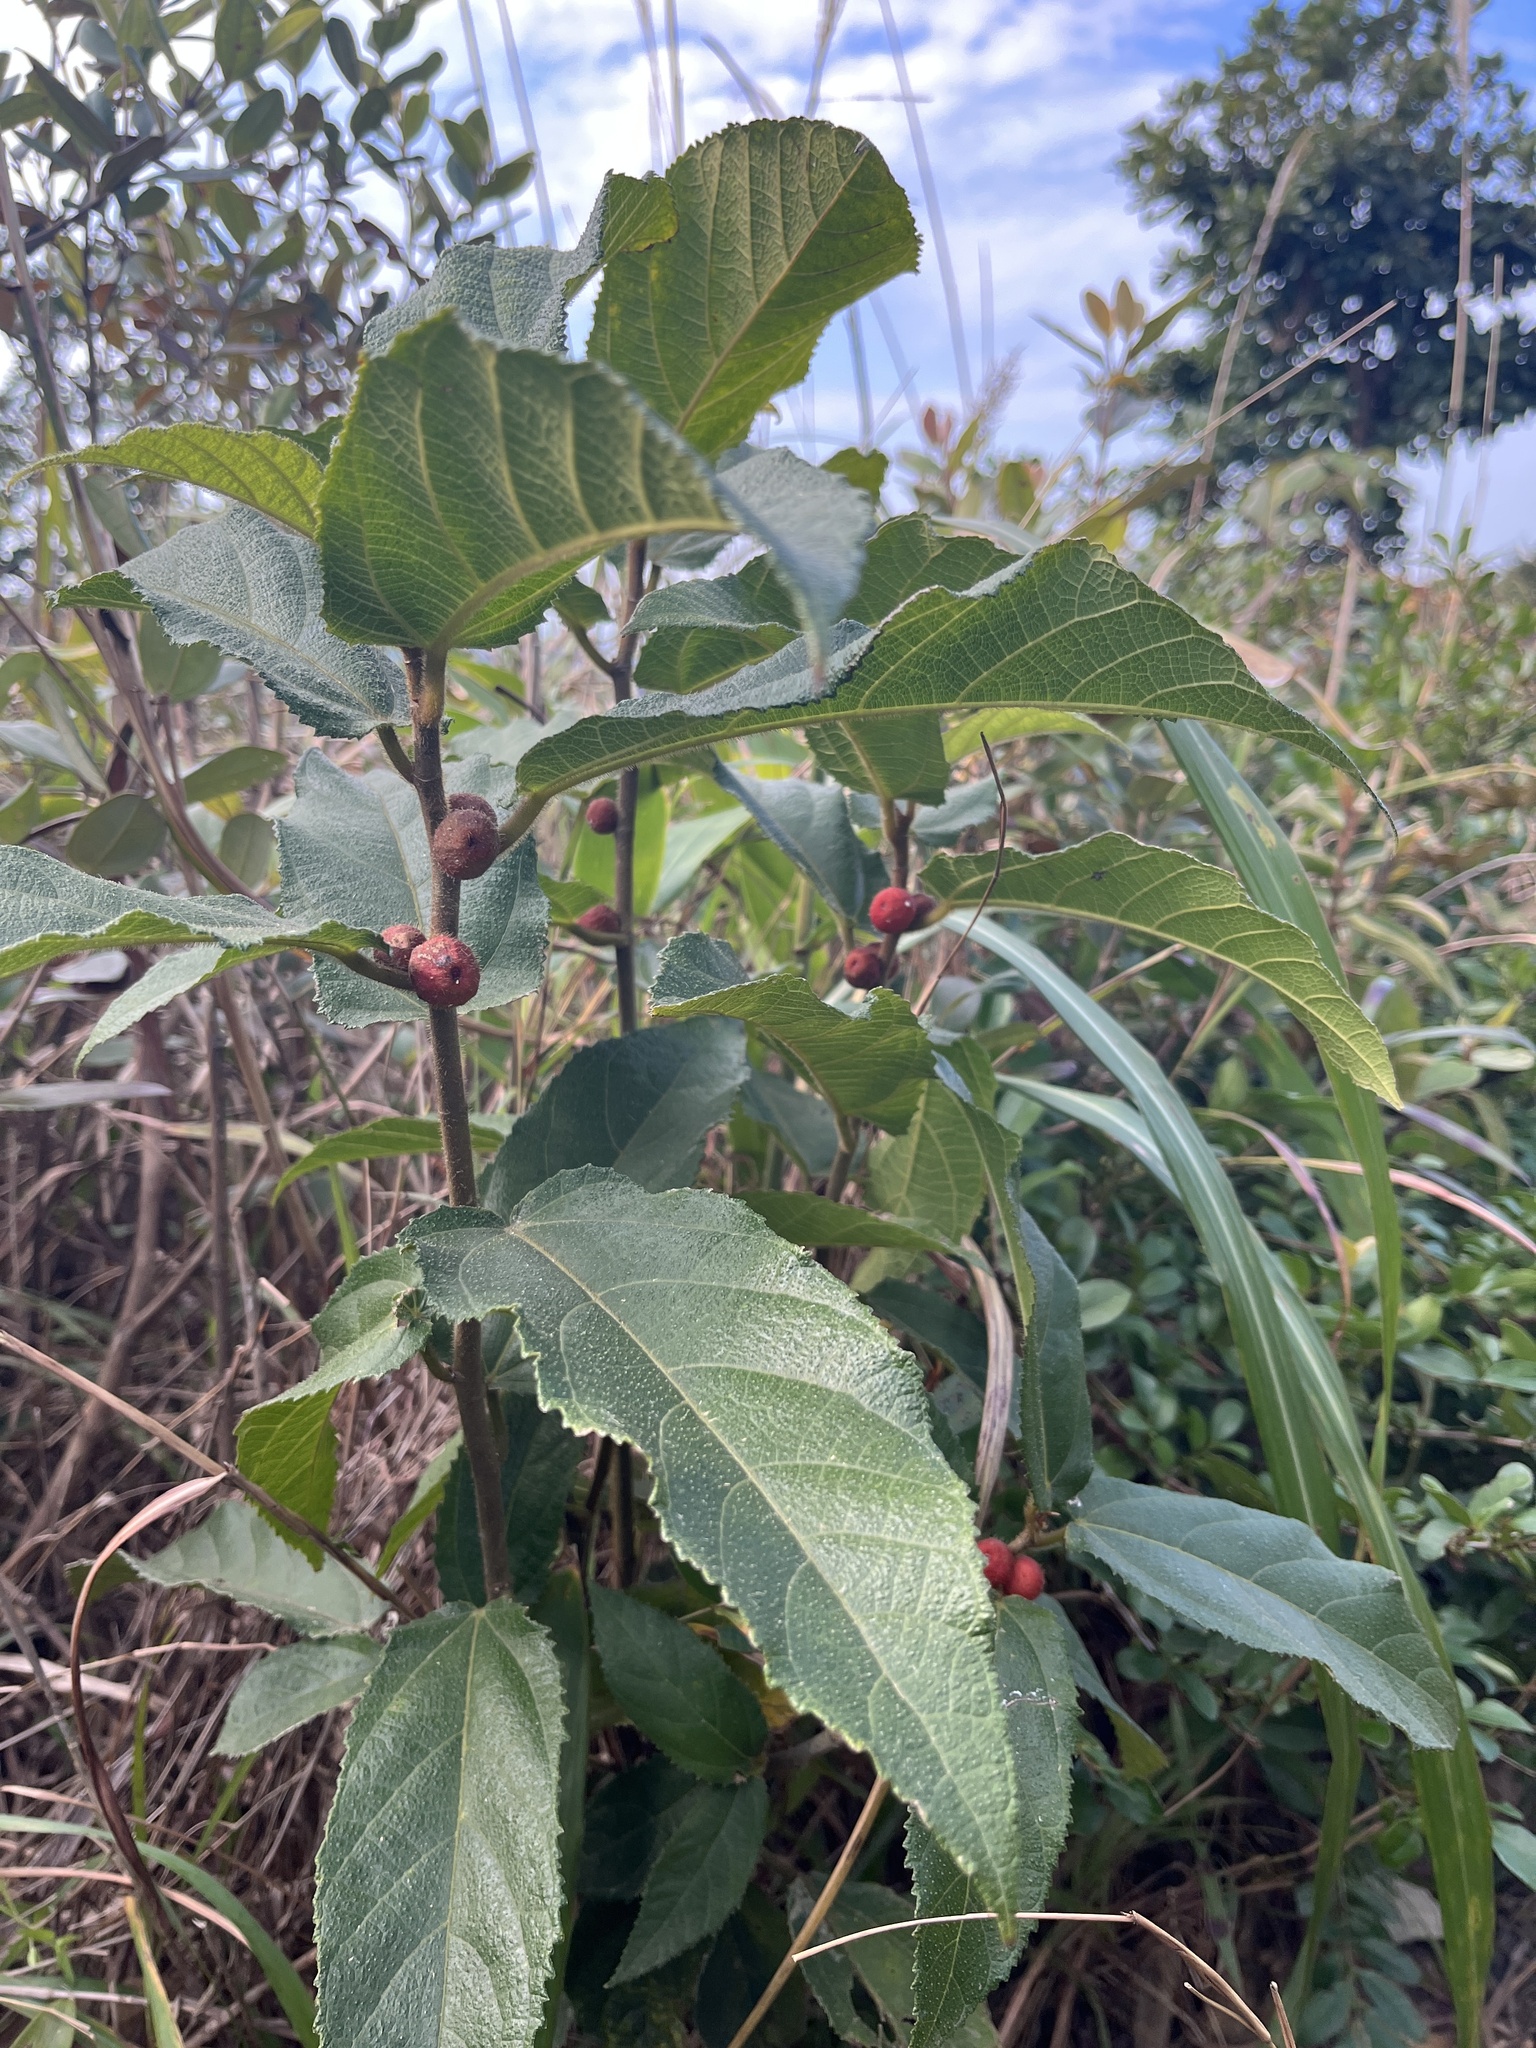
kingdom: Plantae
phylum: Tracheophyta
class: Magnoliopsida
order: Rosales
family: Moraceae
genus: Ficus
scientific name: Ficus simplicissima
